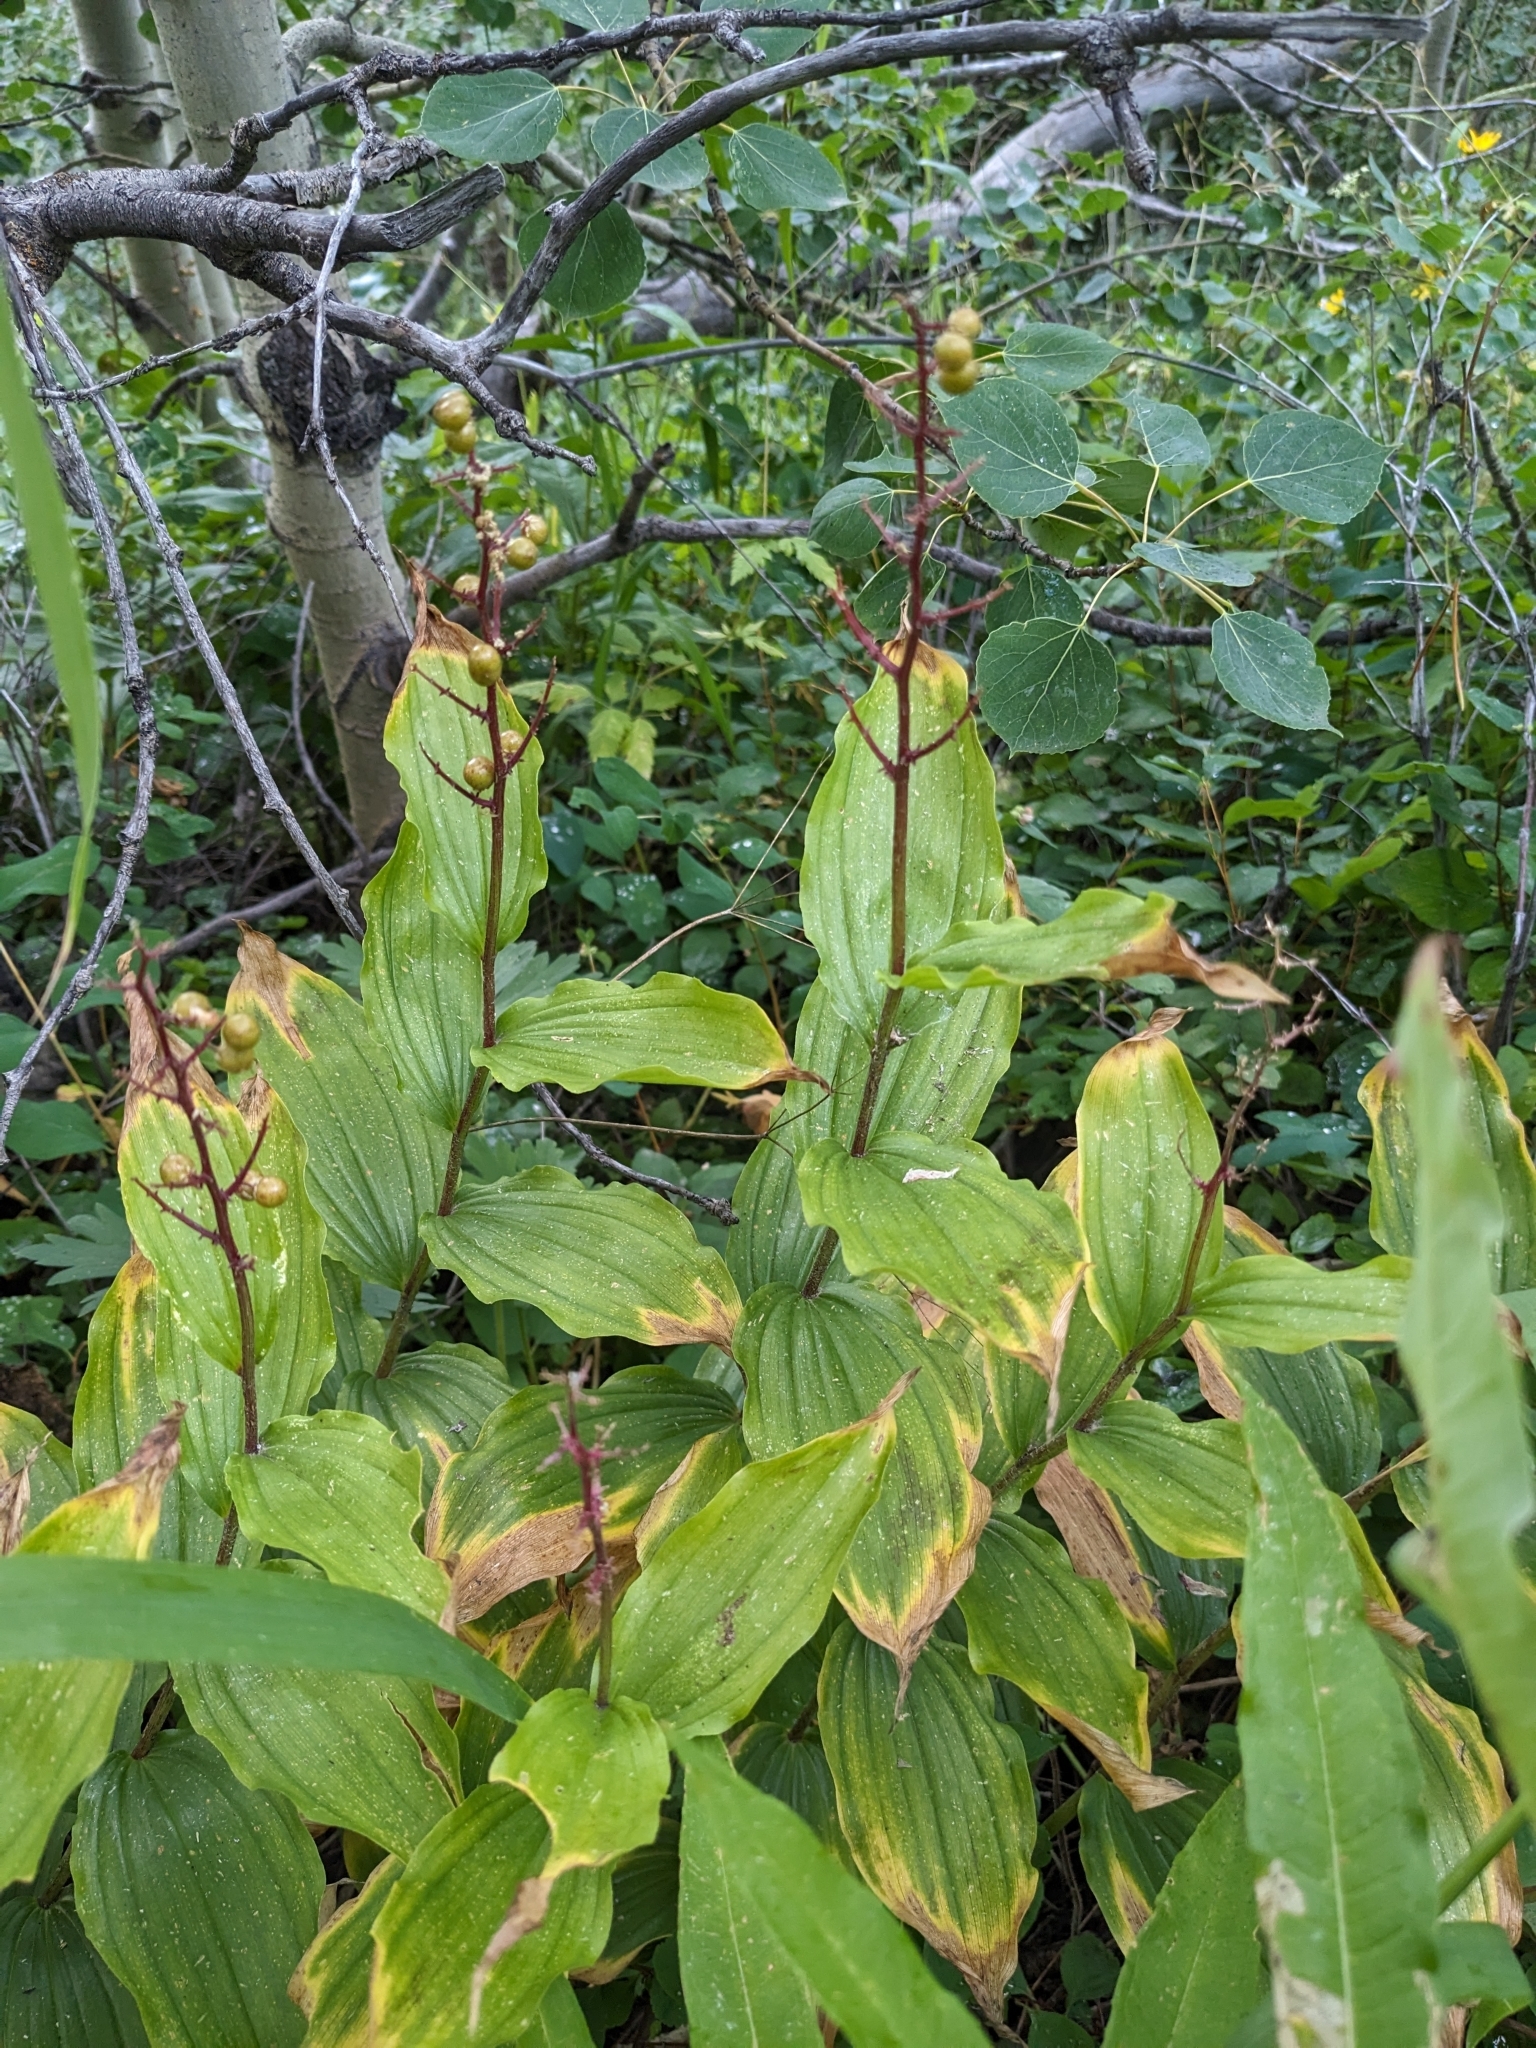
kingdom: Plantae
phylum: Tracheophyta
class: Liliopsida
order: Asparagales
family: Asparagaceae
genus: Maianthemum
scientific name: Maianthemum racemosum
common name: False spikenard
